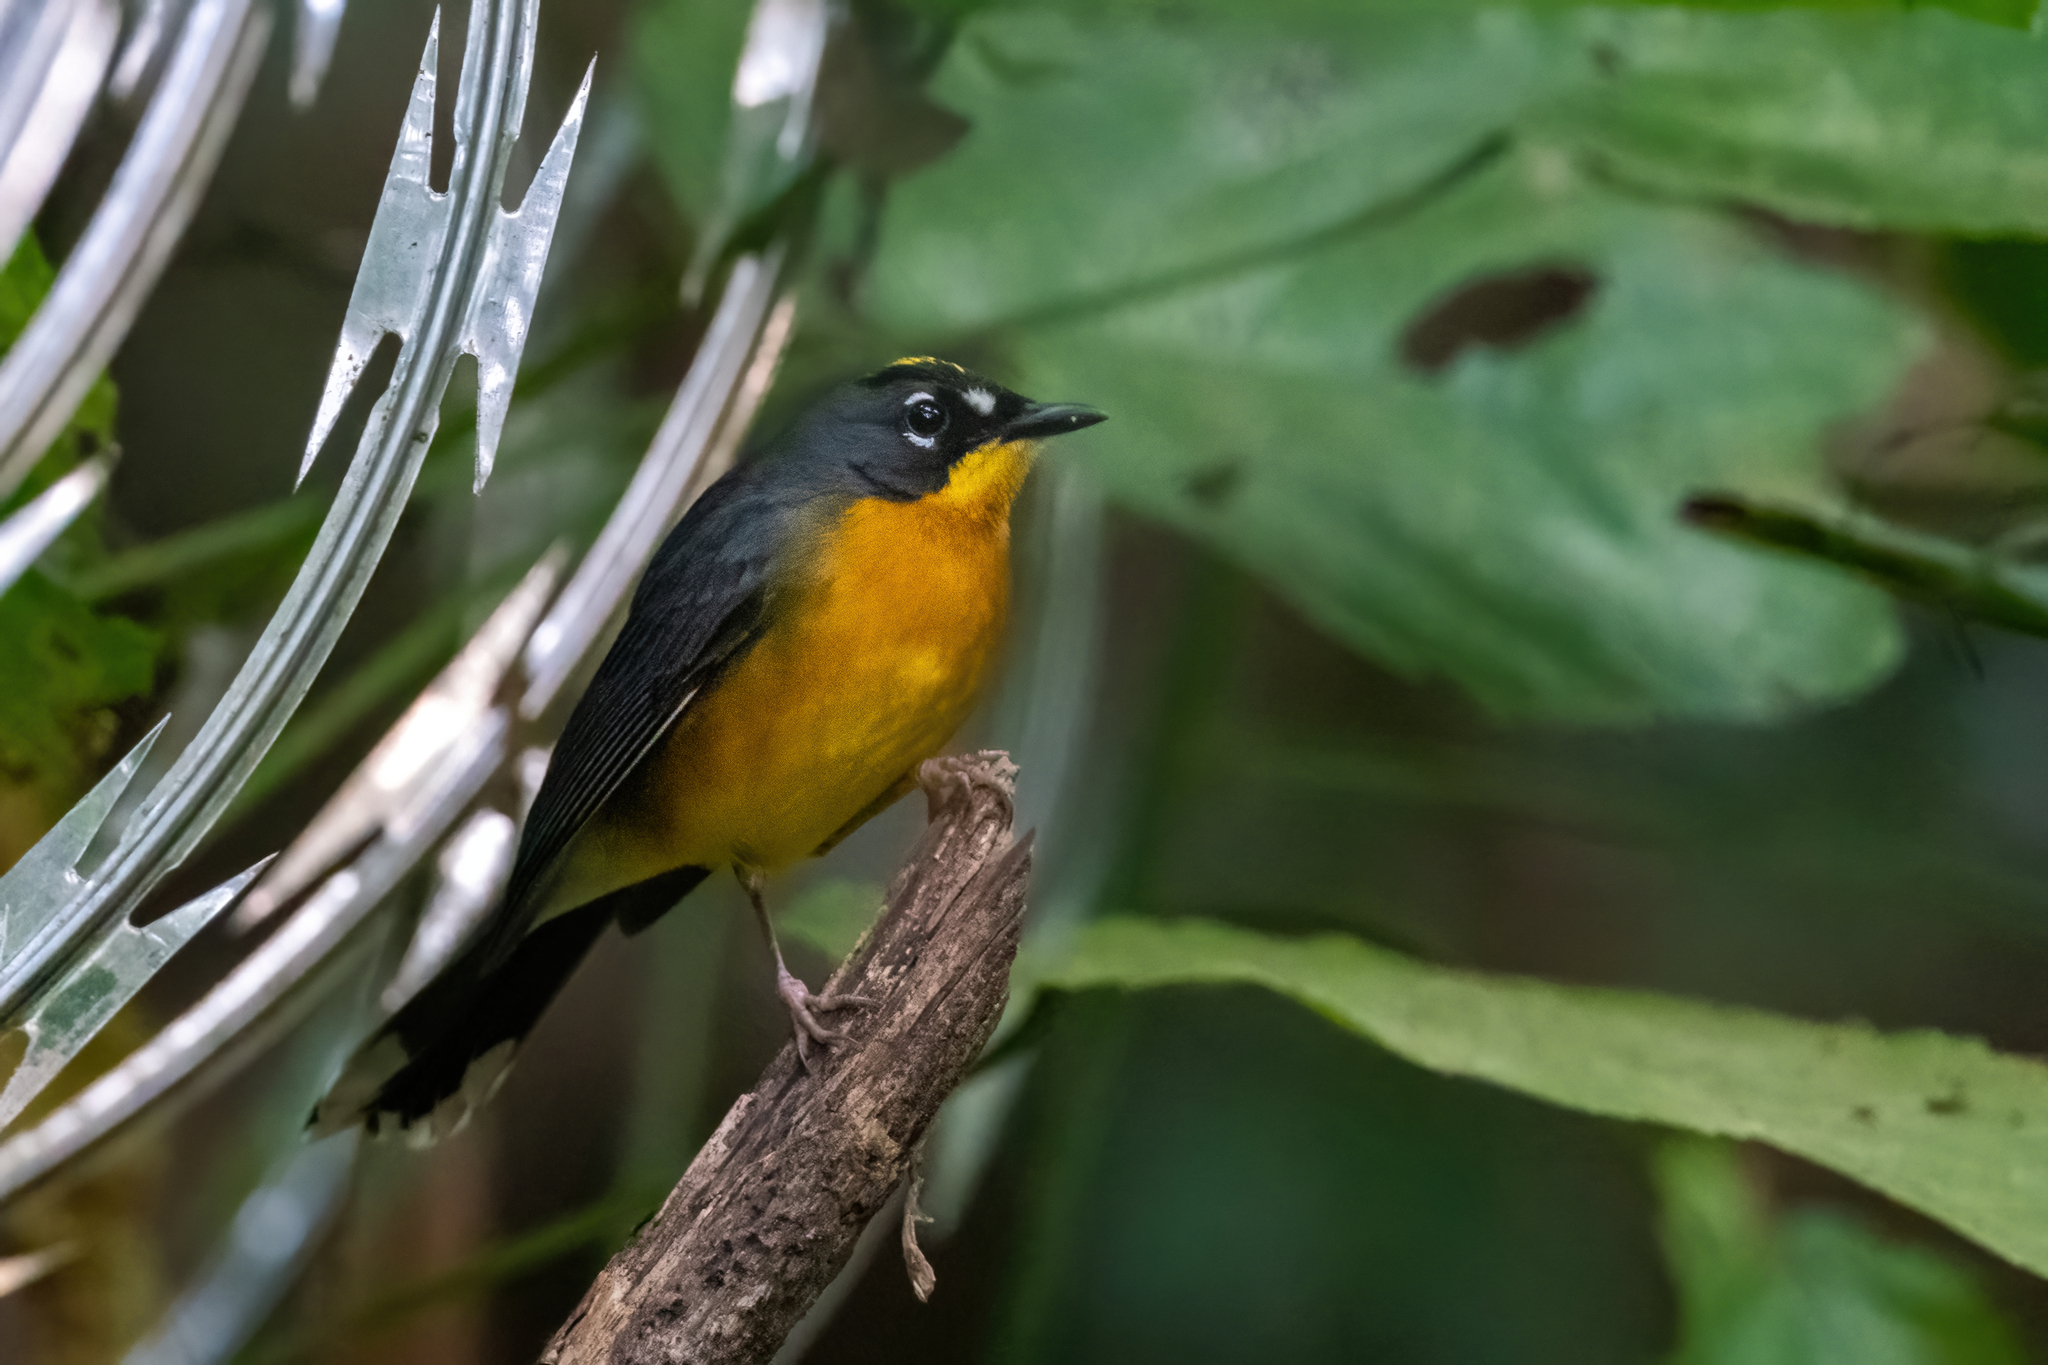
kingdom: Animalia
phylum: Chordata
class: Aves
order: Passeriformes
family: Parulidae
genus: Basileuterus
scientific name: Basileuterus lachrymosus
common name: Fan-tailed warbler
